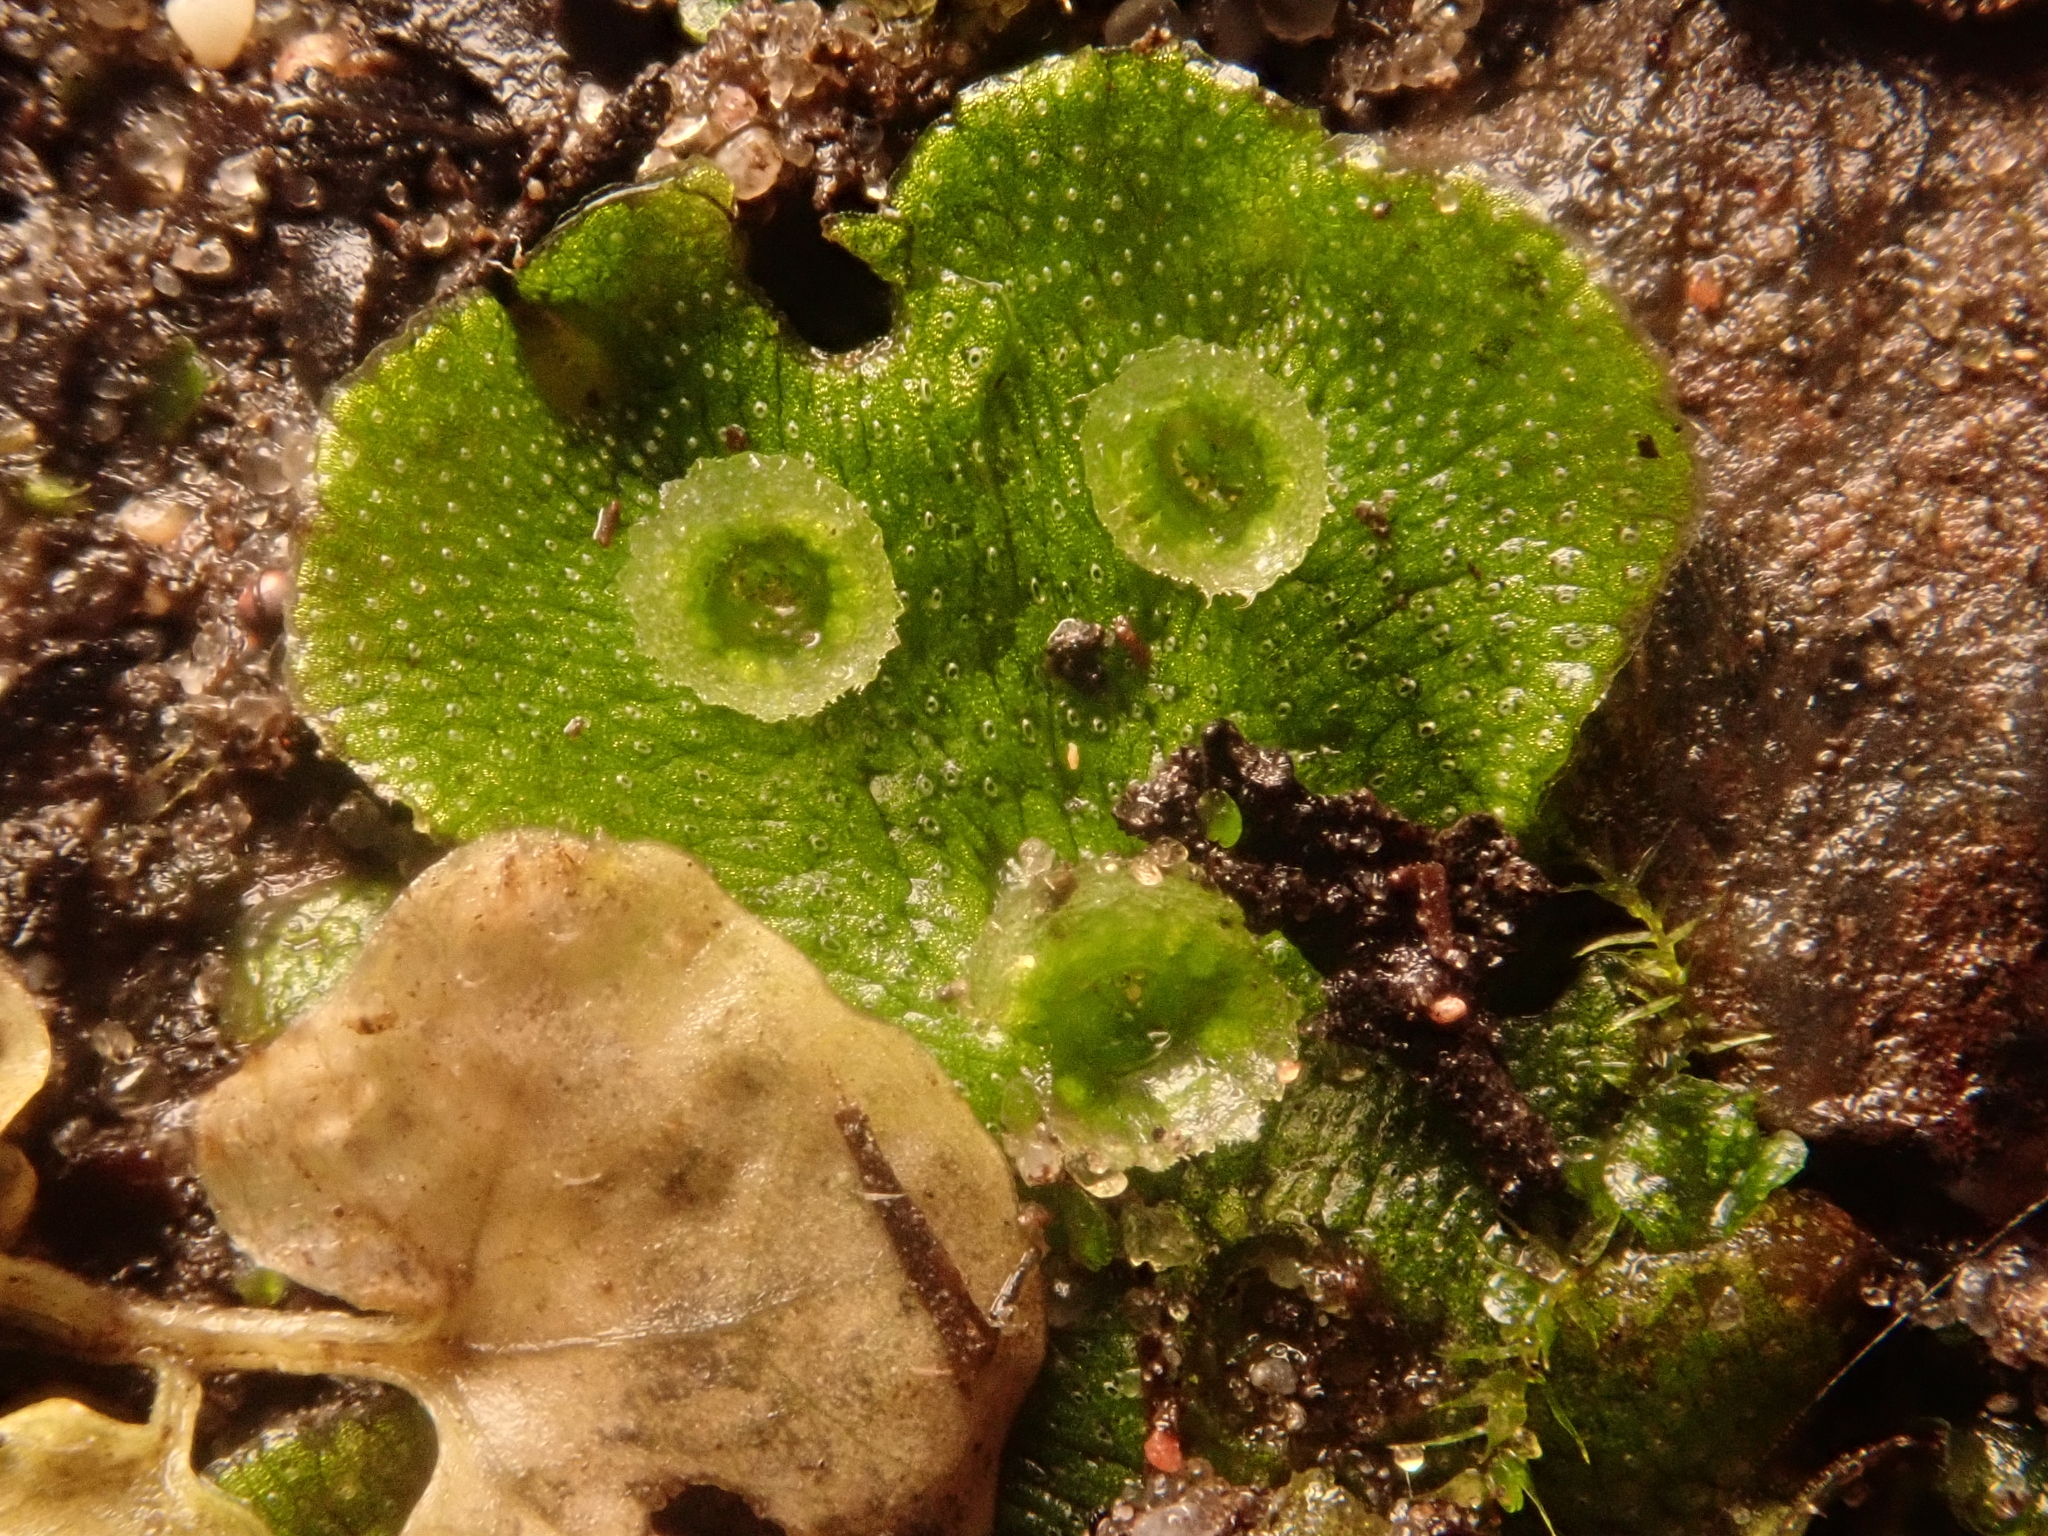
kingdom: Plantae
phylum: Marchantiophyta
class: Marchantiopsida
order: Marchantiales
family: Marchantiaceae
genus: Marchantia
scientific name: Marchantia polymorpha
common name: Common liverwort
